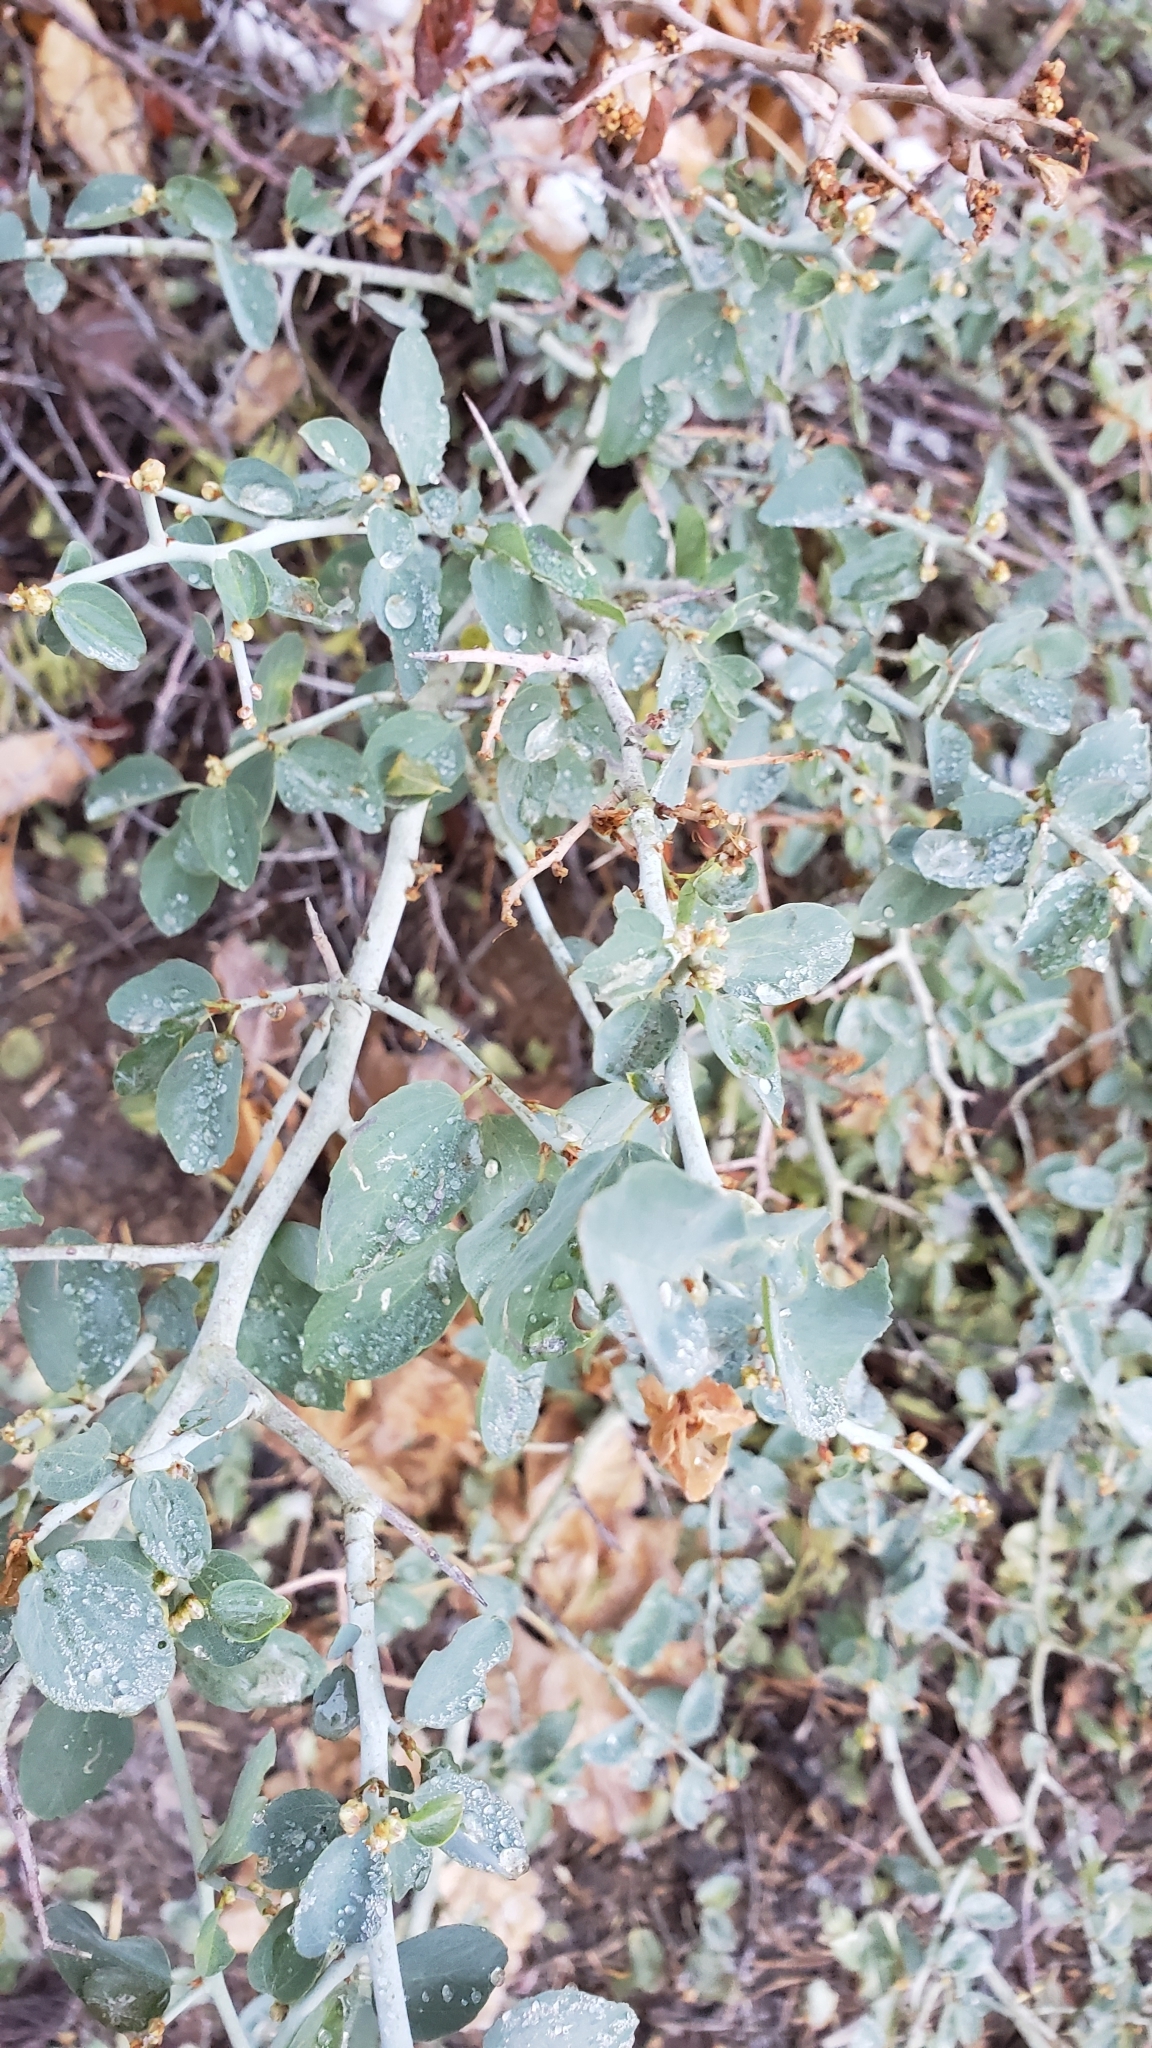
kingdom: Plantae
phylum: Tracheophyta
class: Magnoliopsida
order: Rosales
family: Rhamnaceae
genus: Ceanothus
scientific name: Ceanothus cordulatus
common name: Mountain whitethorn
